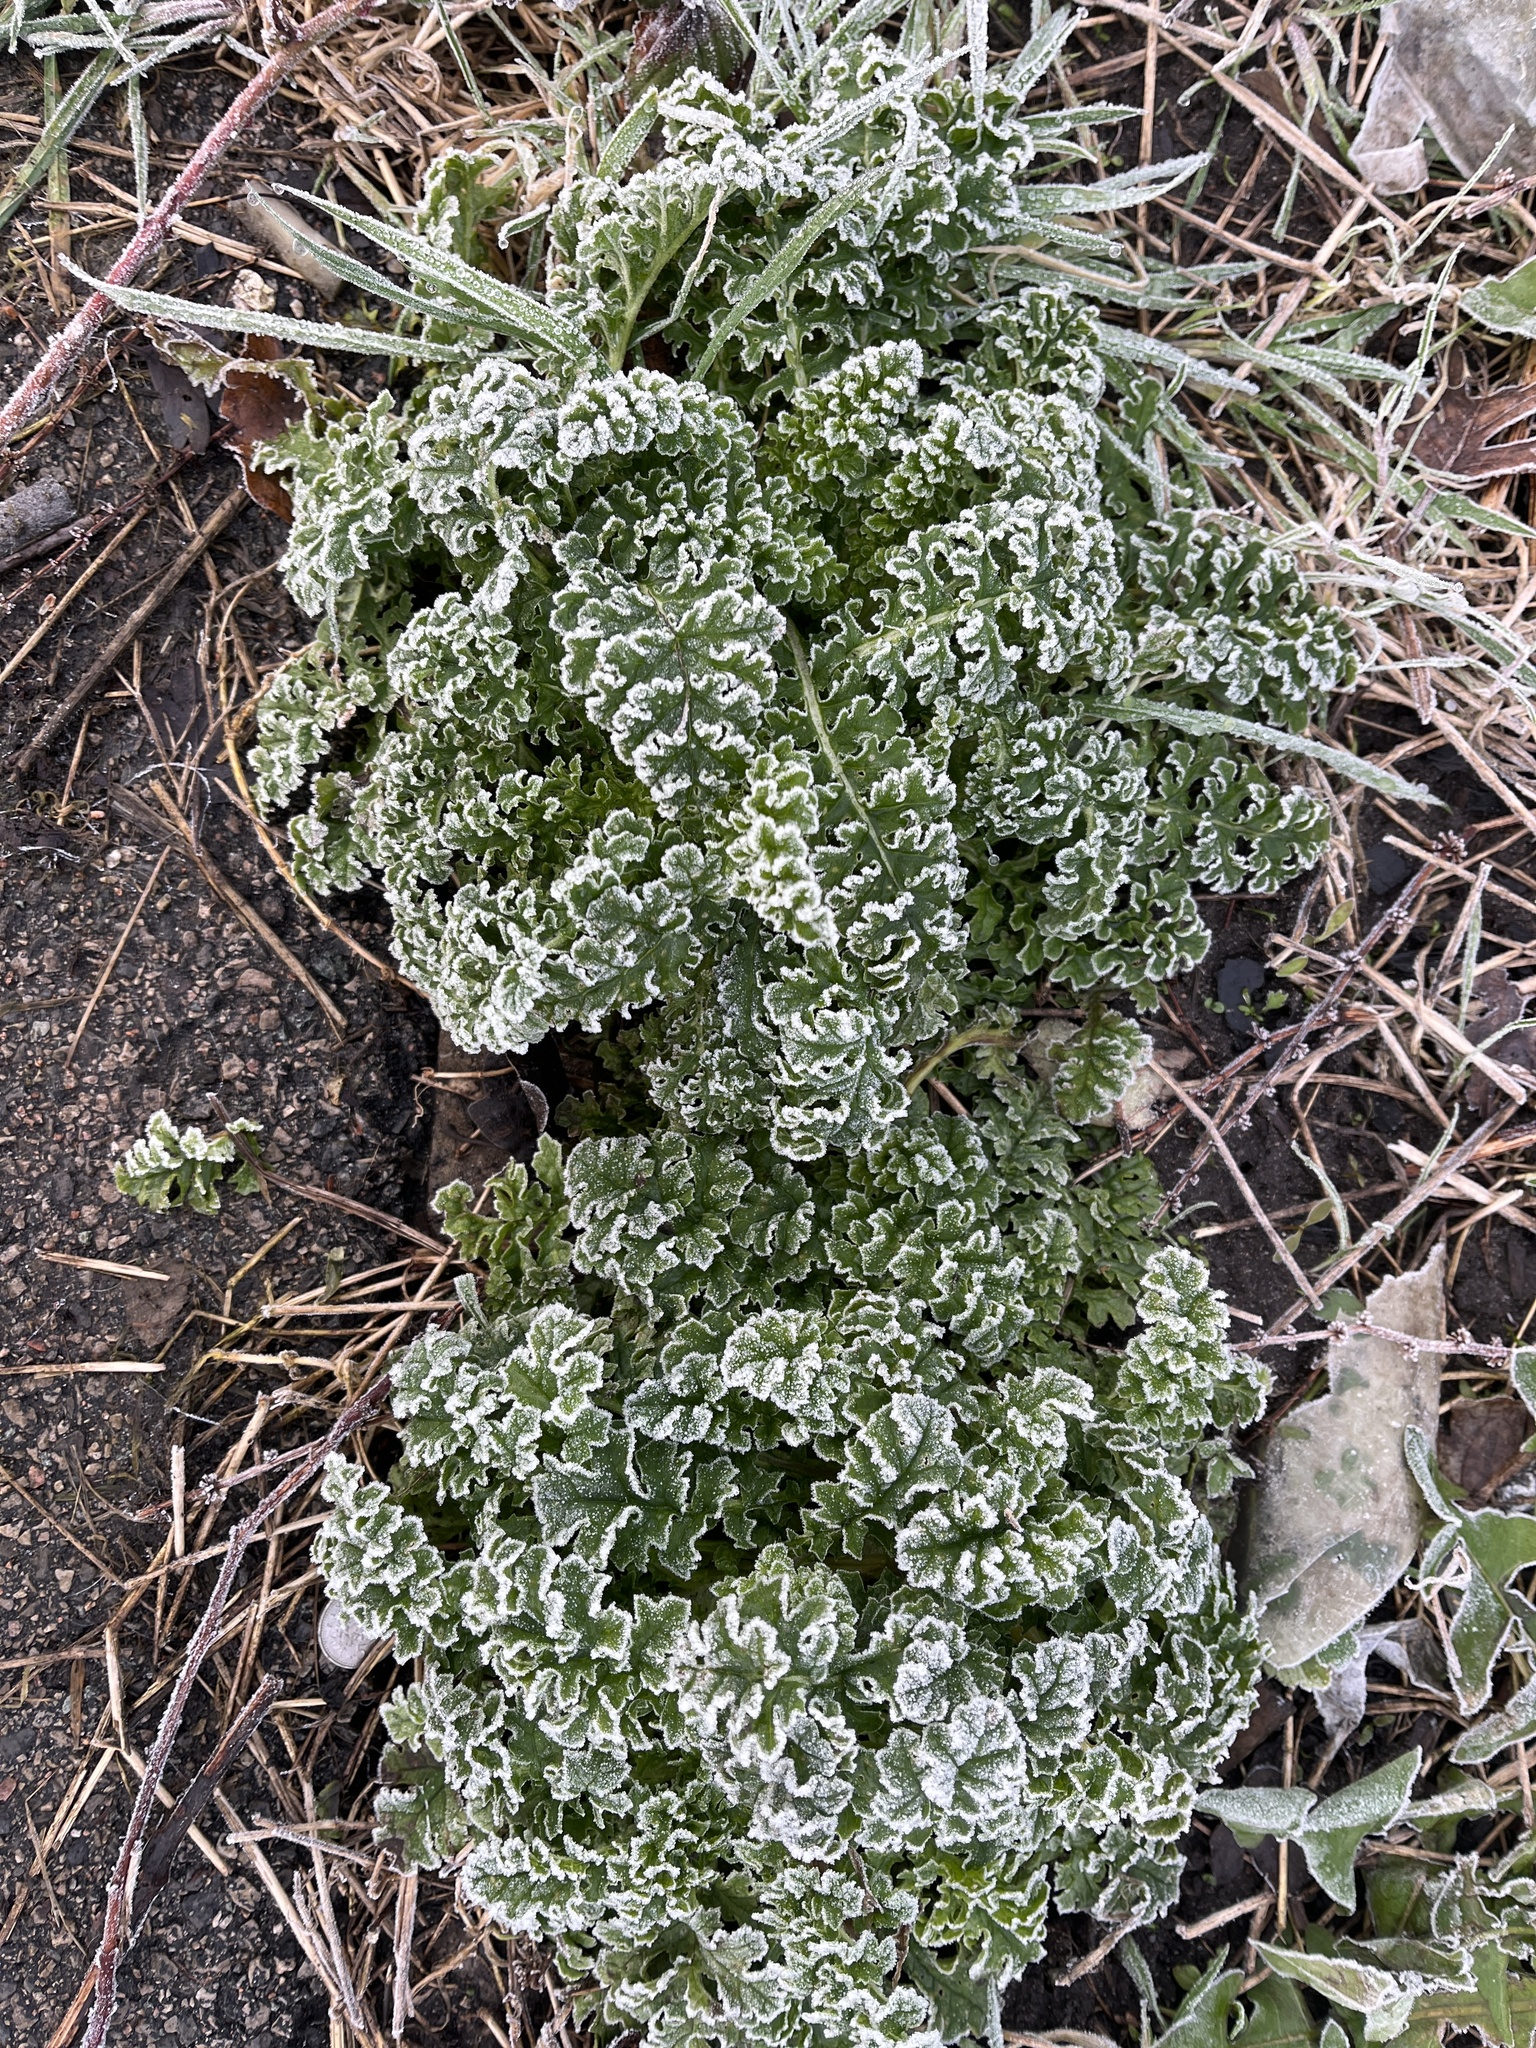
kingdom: Plantae
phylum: Tracheophyta
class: Magnoliopsida
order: Asterales
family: Asteraceae
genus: Jacobaea
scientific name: Jacobaea vulgaris
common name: Stinking willie
